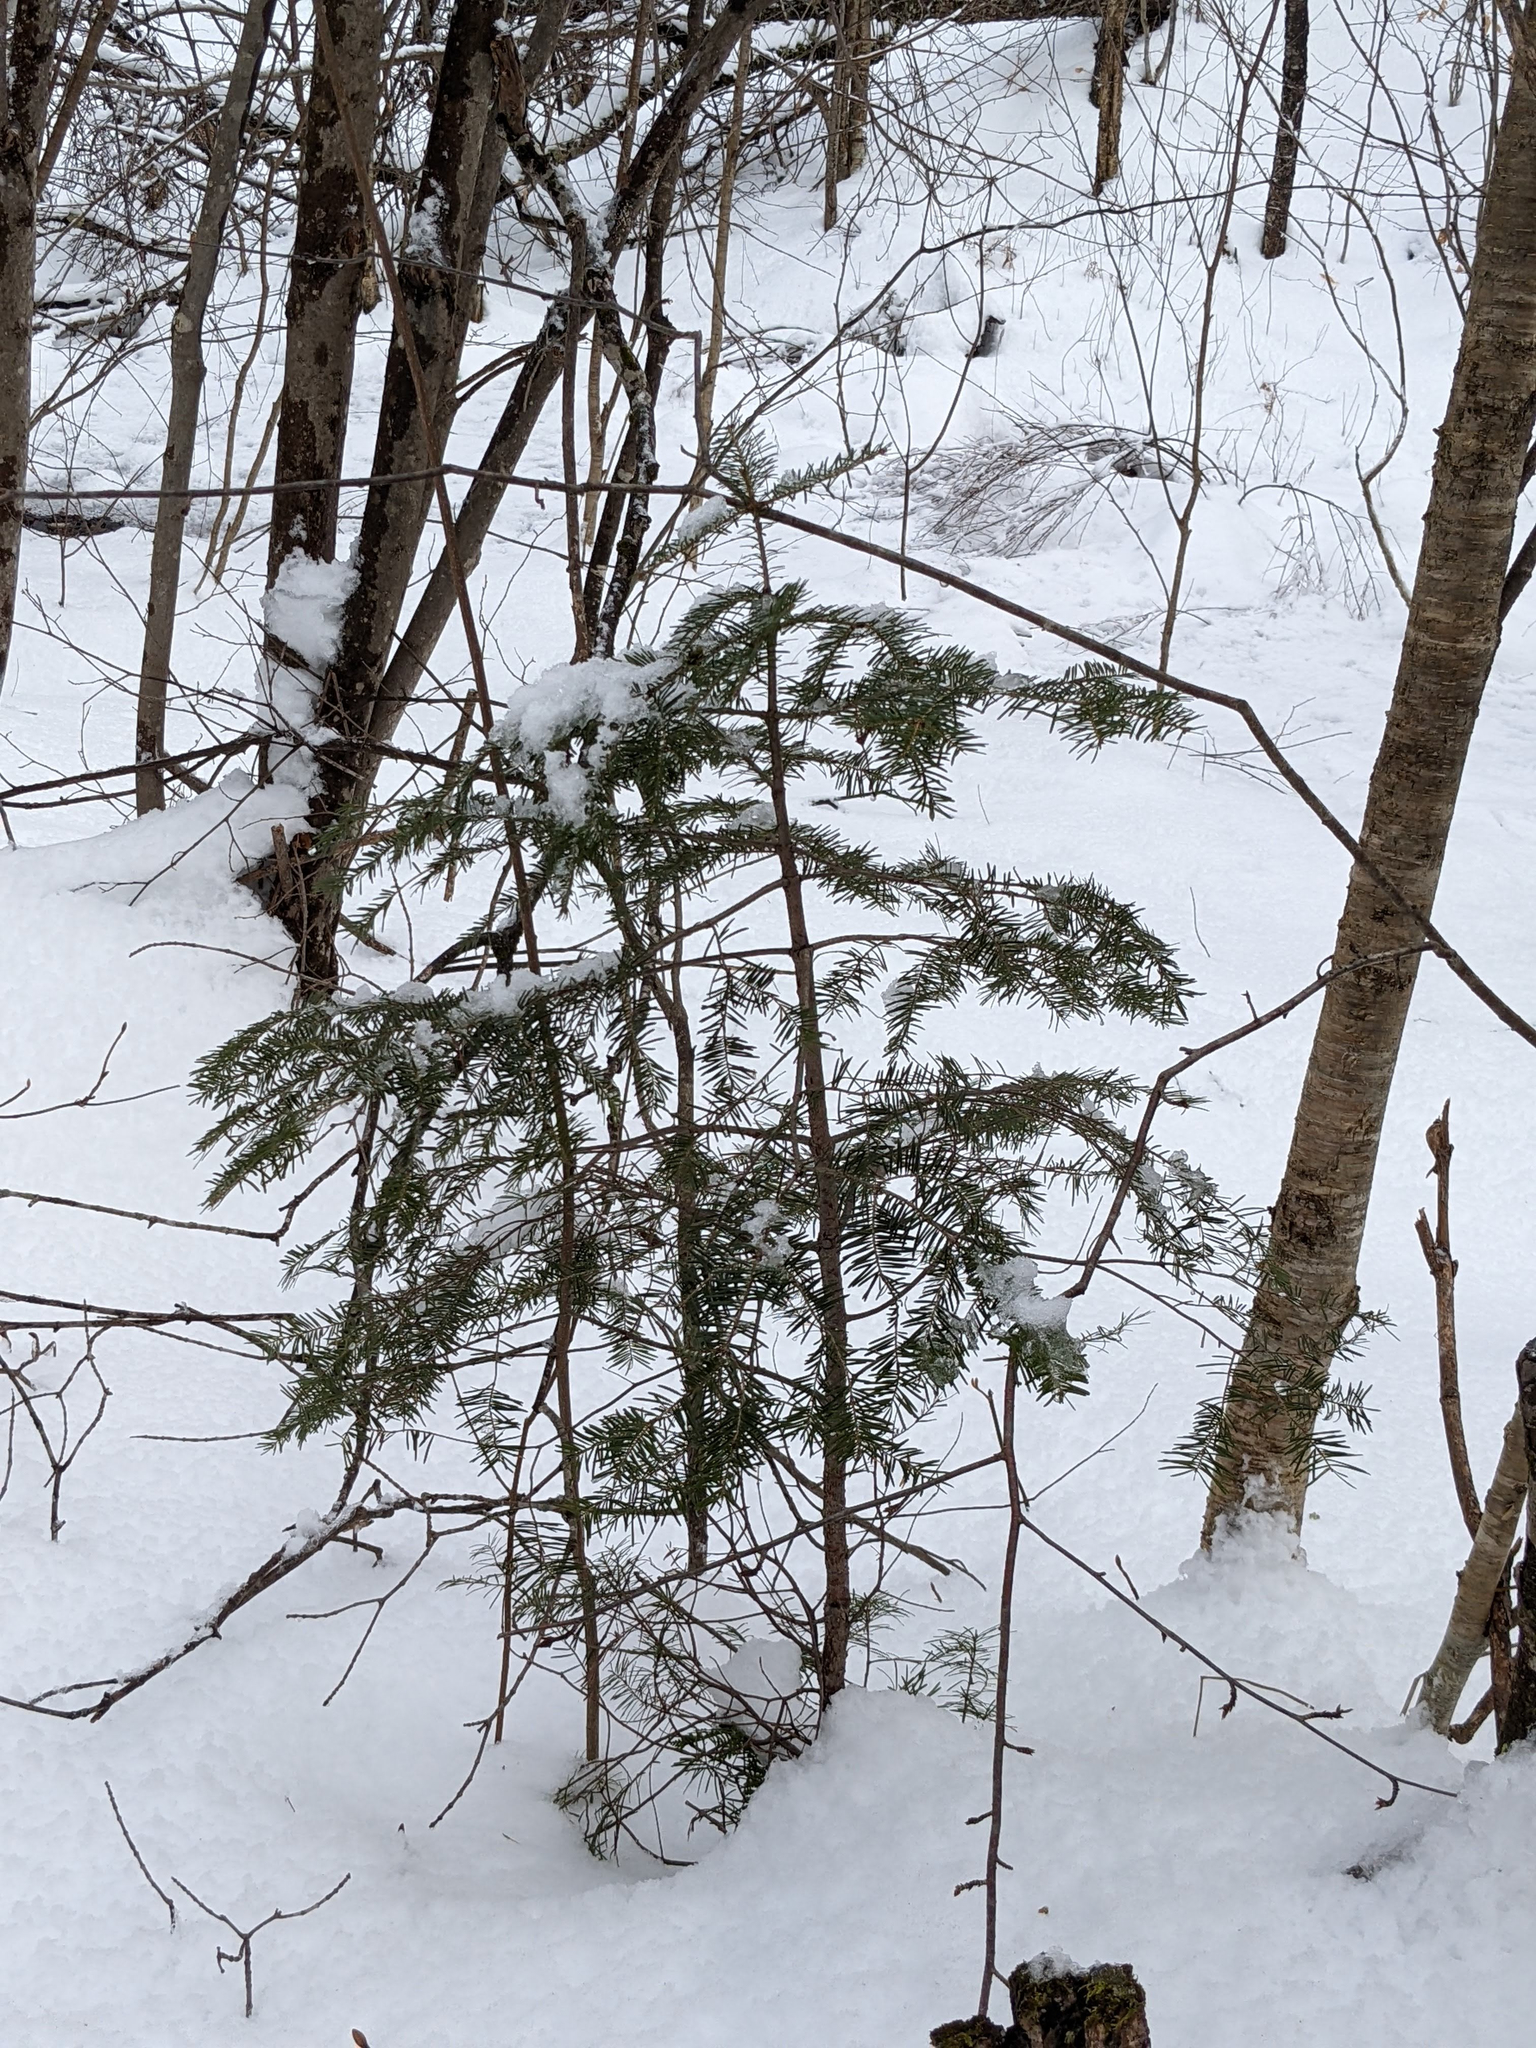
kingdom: Plantae
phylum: Tracheophyta
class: Pinopsida
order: Pinales
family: Pinaceae
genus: Tsuga
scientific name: Tsuga canadensis
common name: Eastern hemlock
